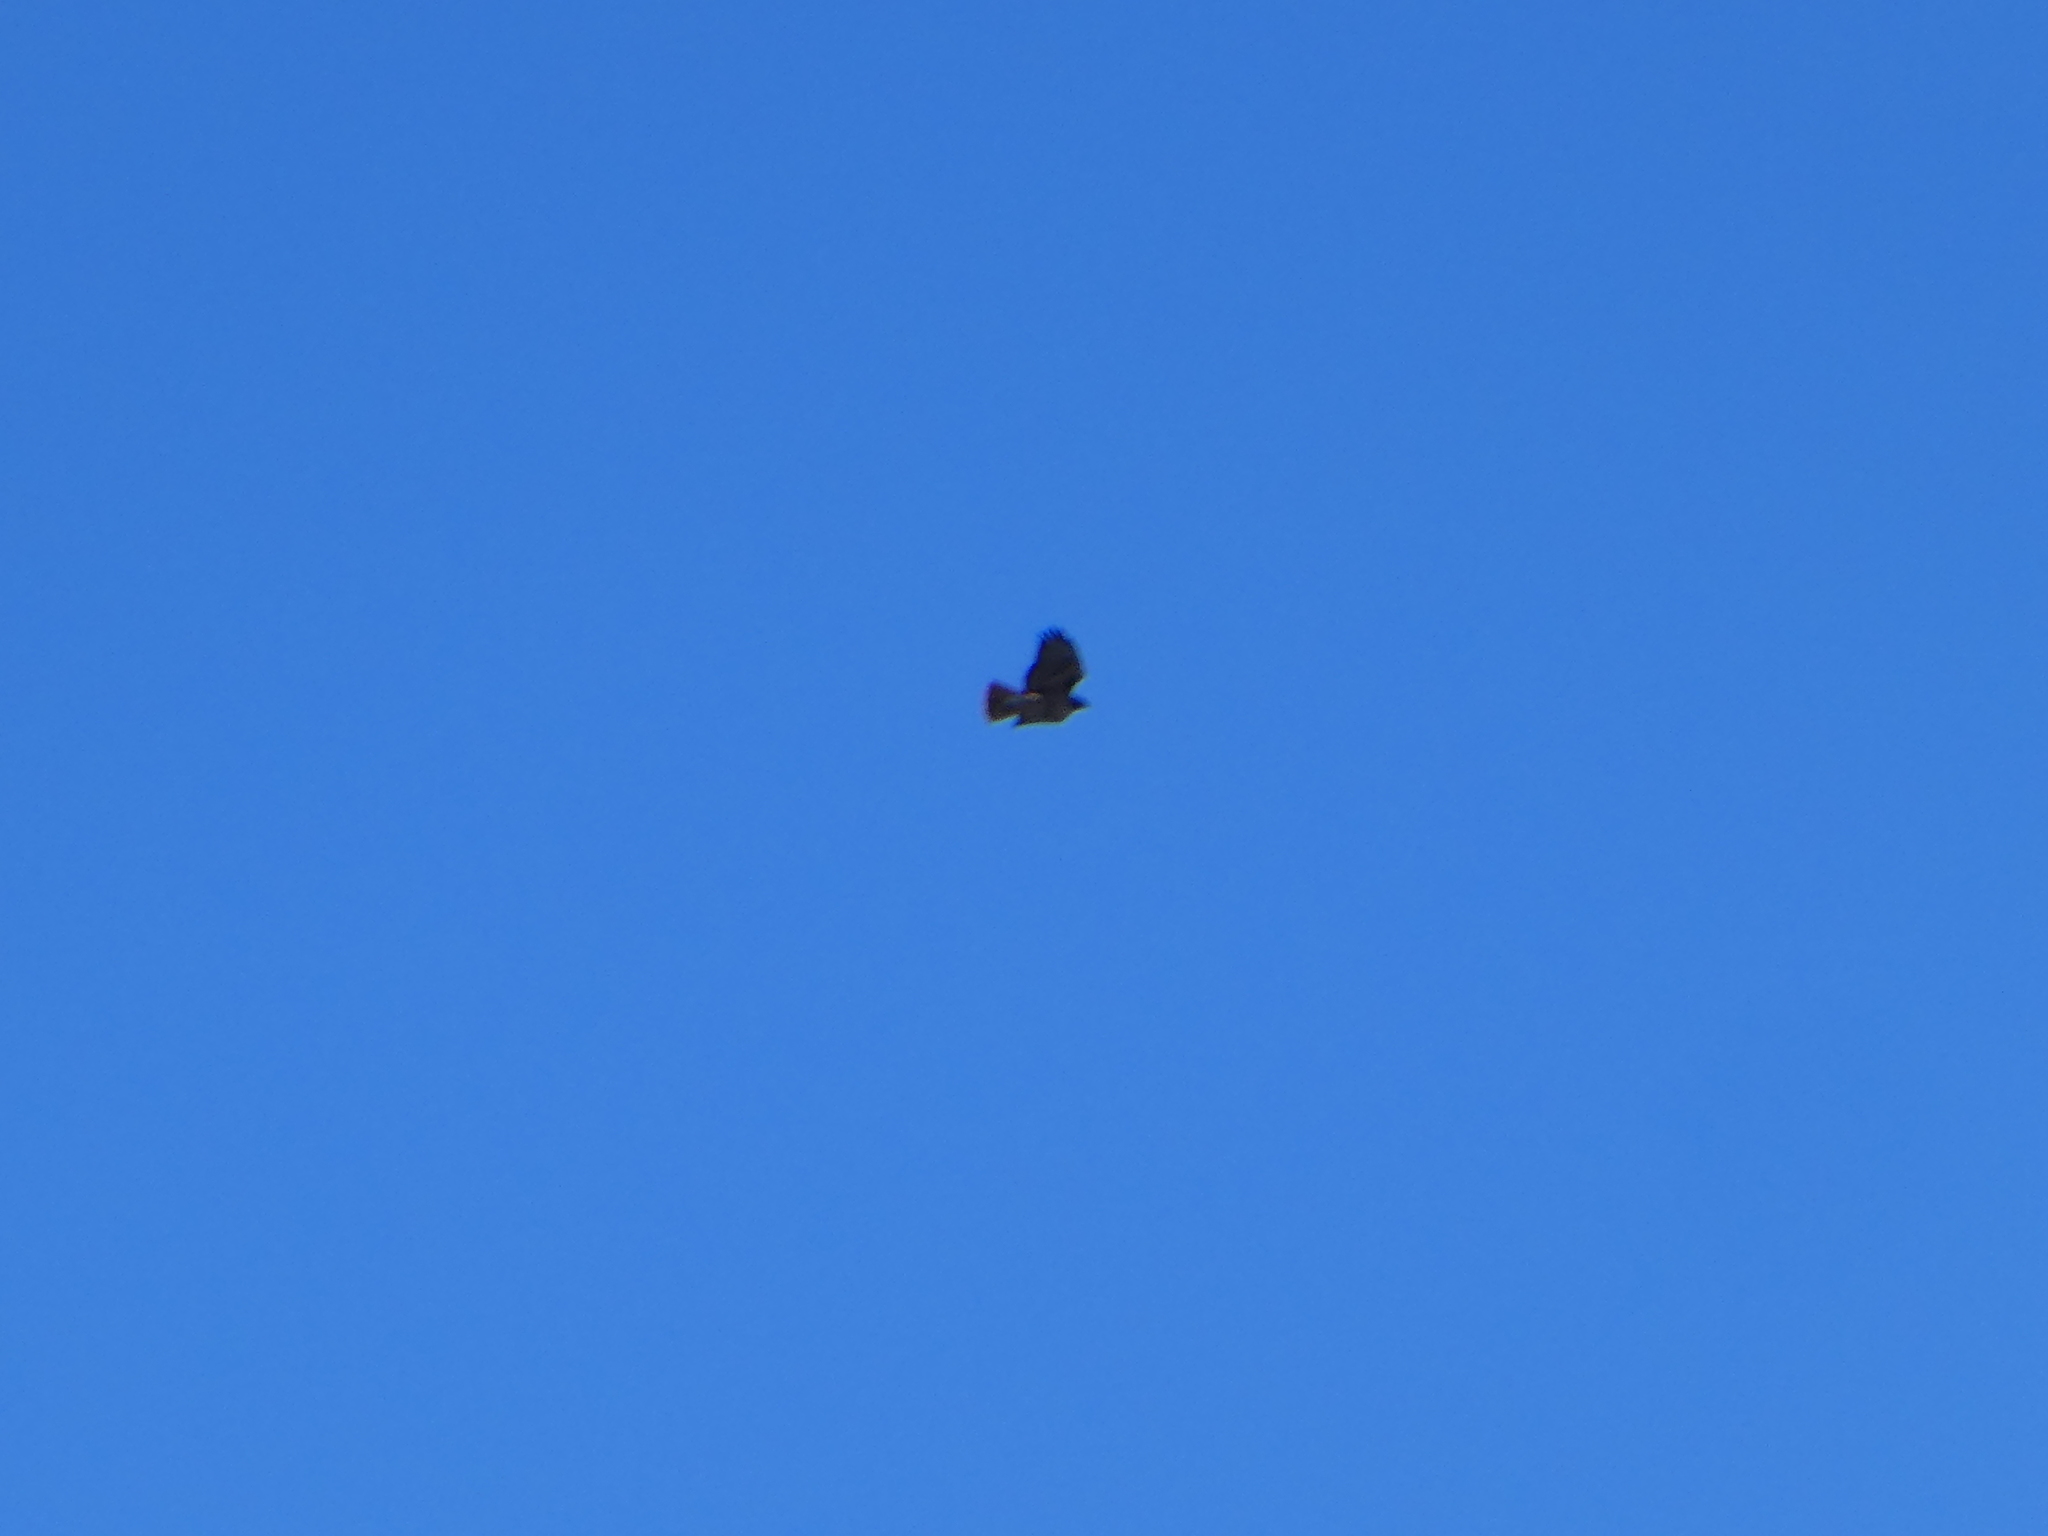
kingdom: Animalia
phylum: Chordata
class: Aves
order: Accipitriformes
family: Accipitridae
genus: Buteo
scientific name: Buteo jamaicensis
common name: Red-tailed hawk
